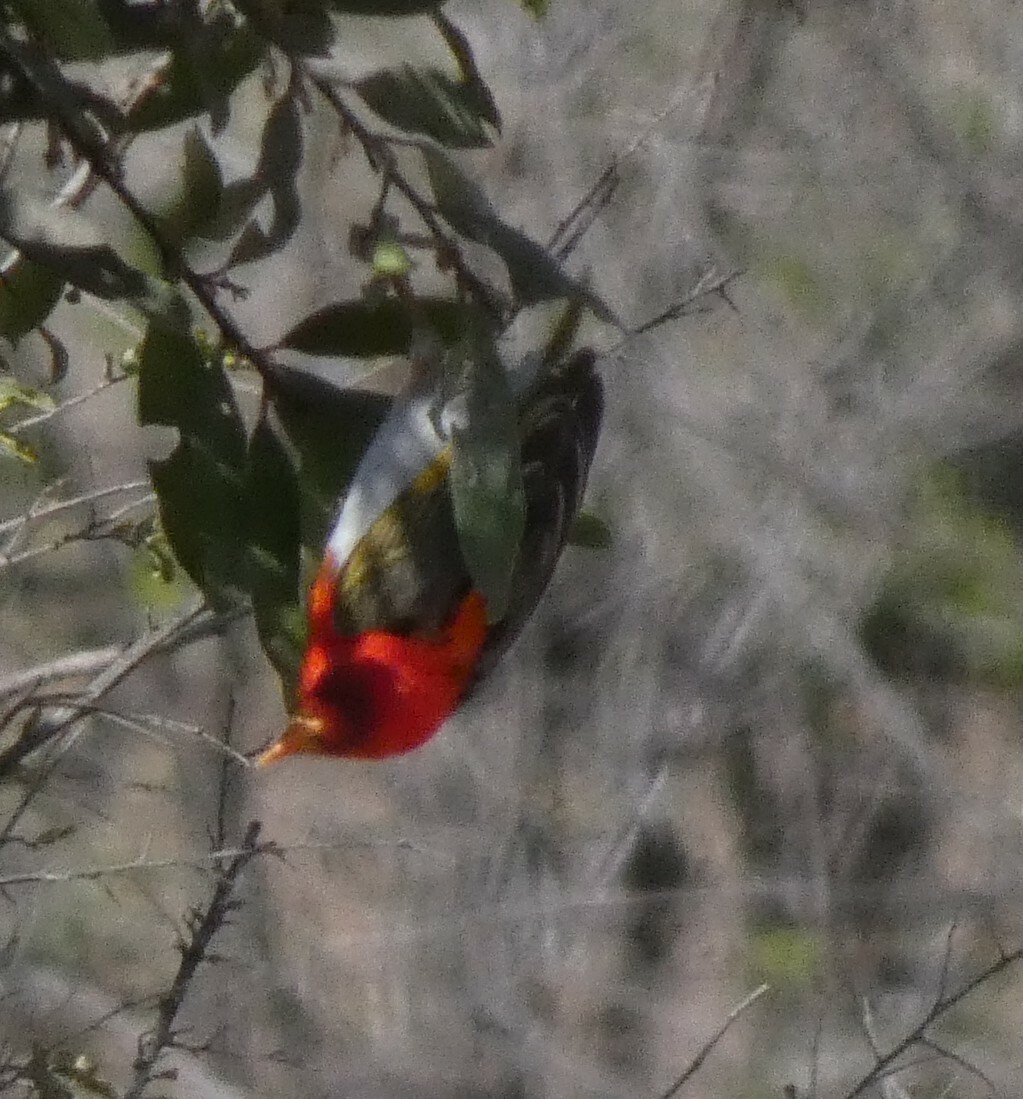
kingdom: Animalia
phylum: Chordata
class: Aves
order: Passeriformes
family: Ploceidae
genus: Anaplectes
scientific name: Anaplectes rubriceps
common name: Red-headed weaver
